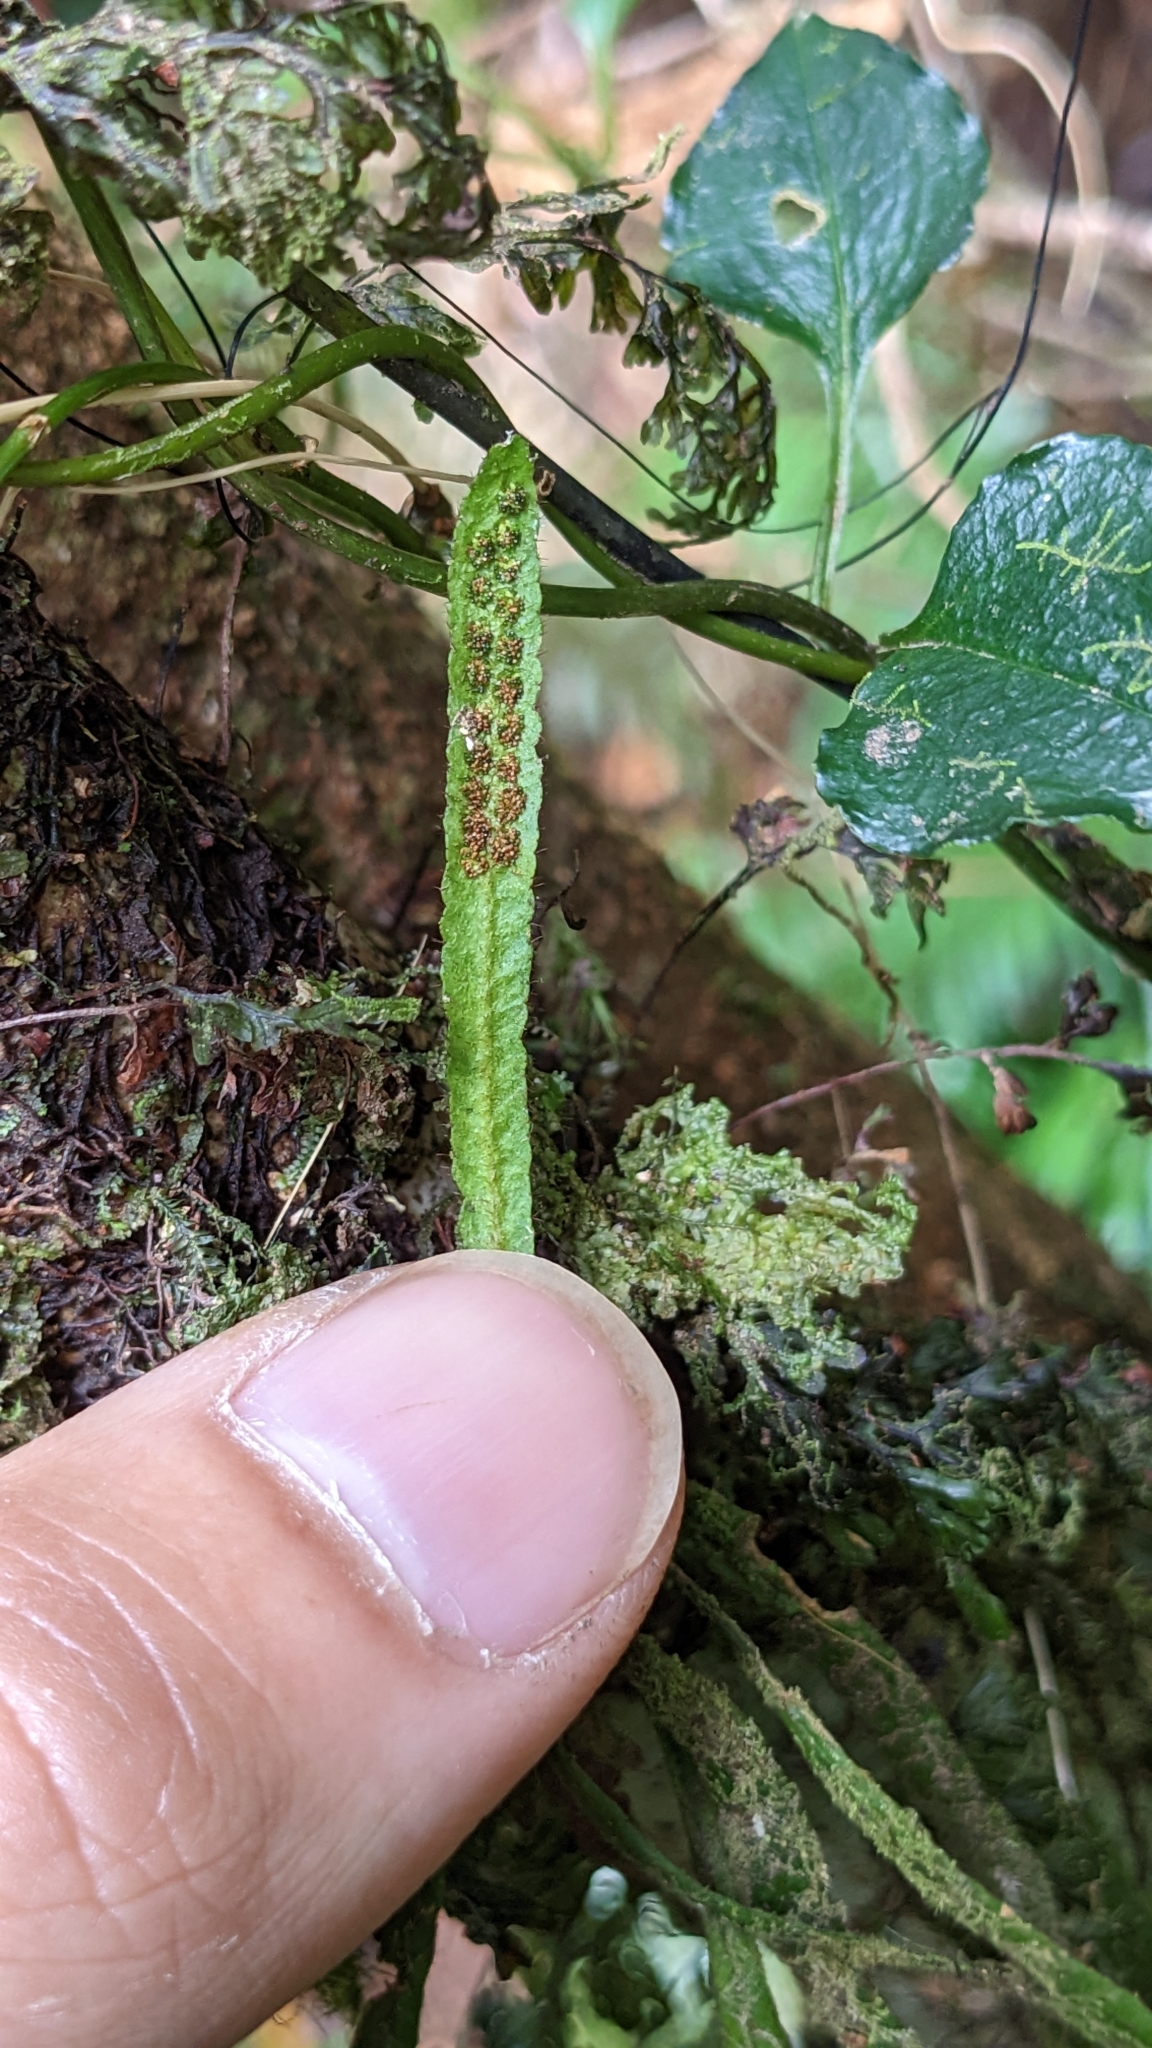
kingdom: Plantae
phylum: Tracheophyta
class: Polypodiopsida
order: Polypodiales
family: Polypodiaceae
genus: Oreogrammitis
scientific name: Oreogrammitis subnervosa
